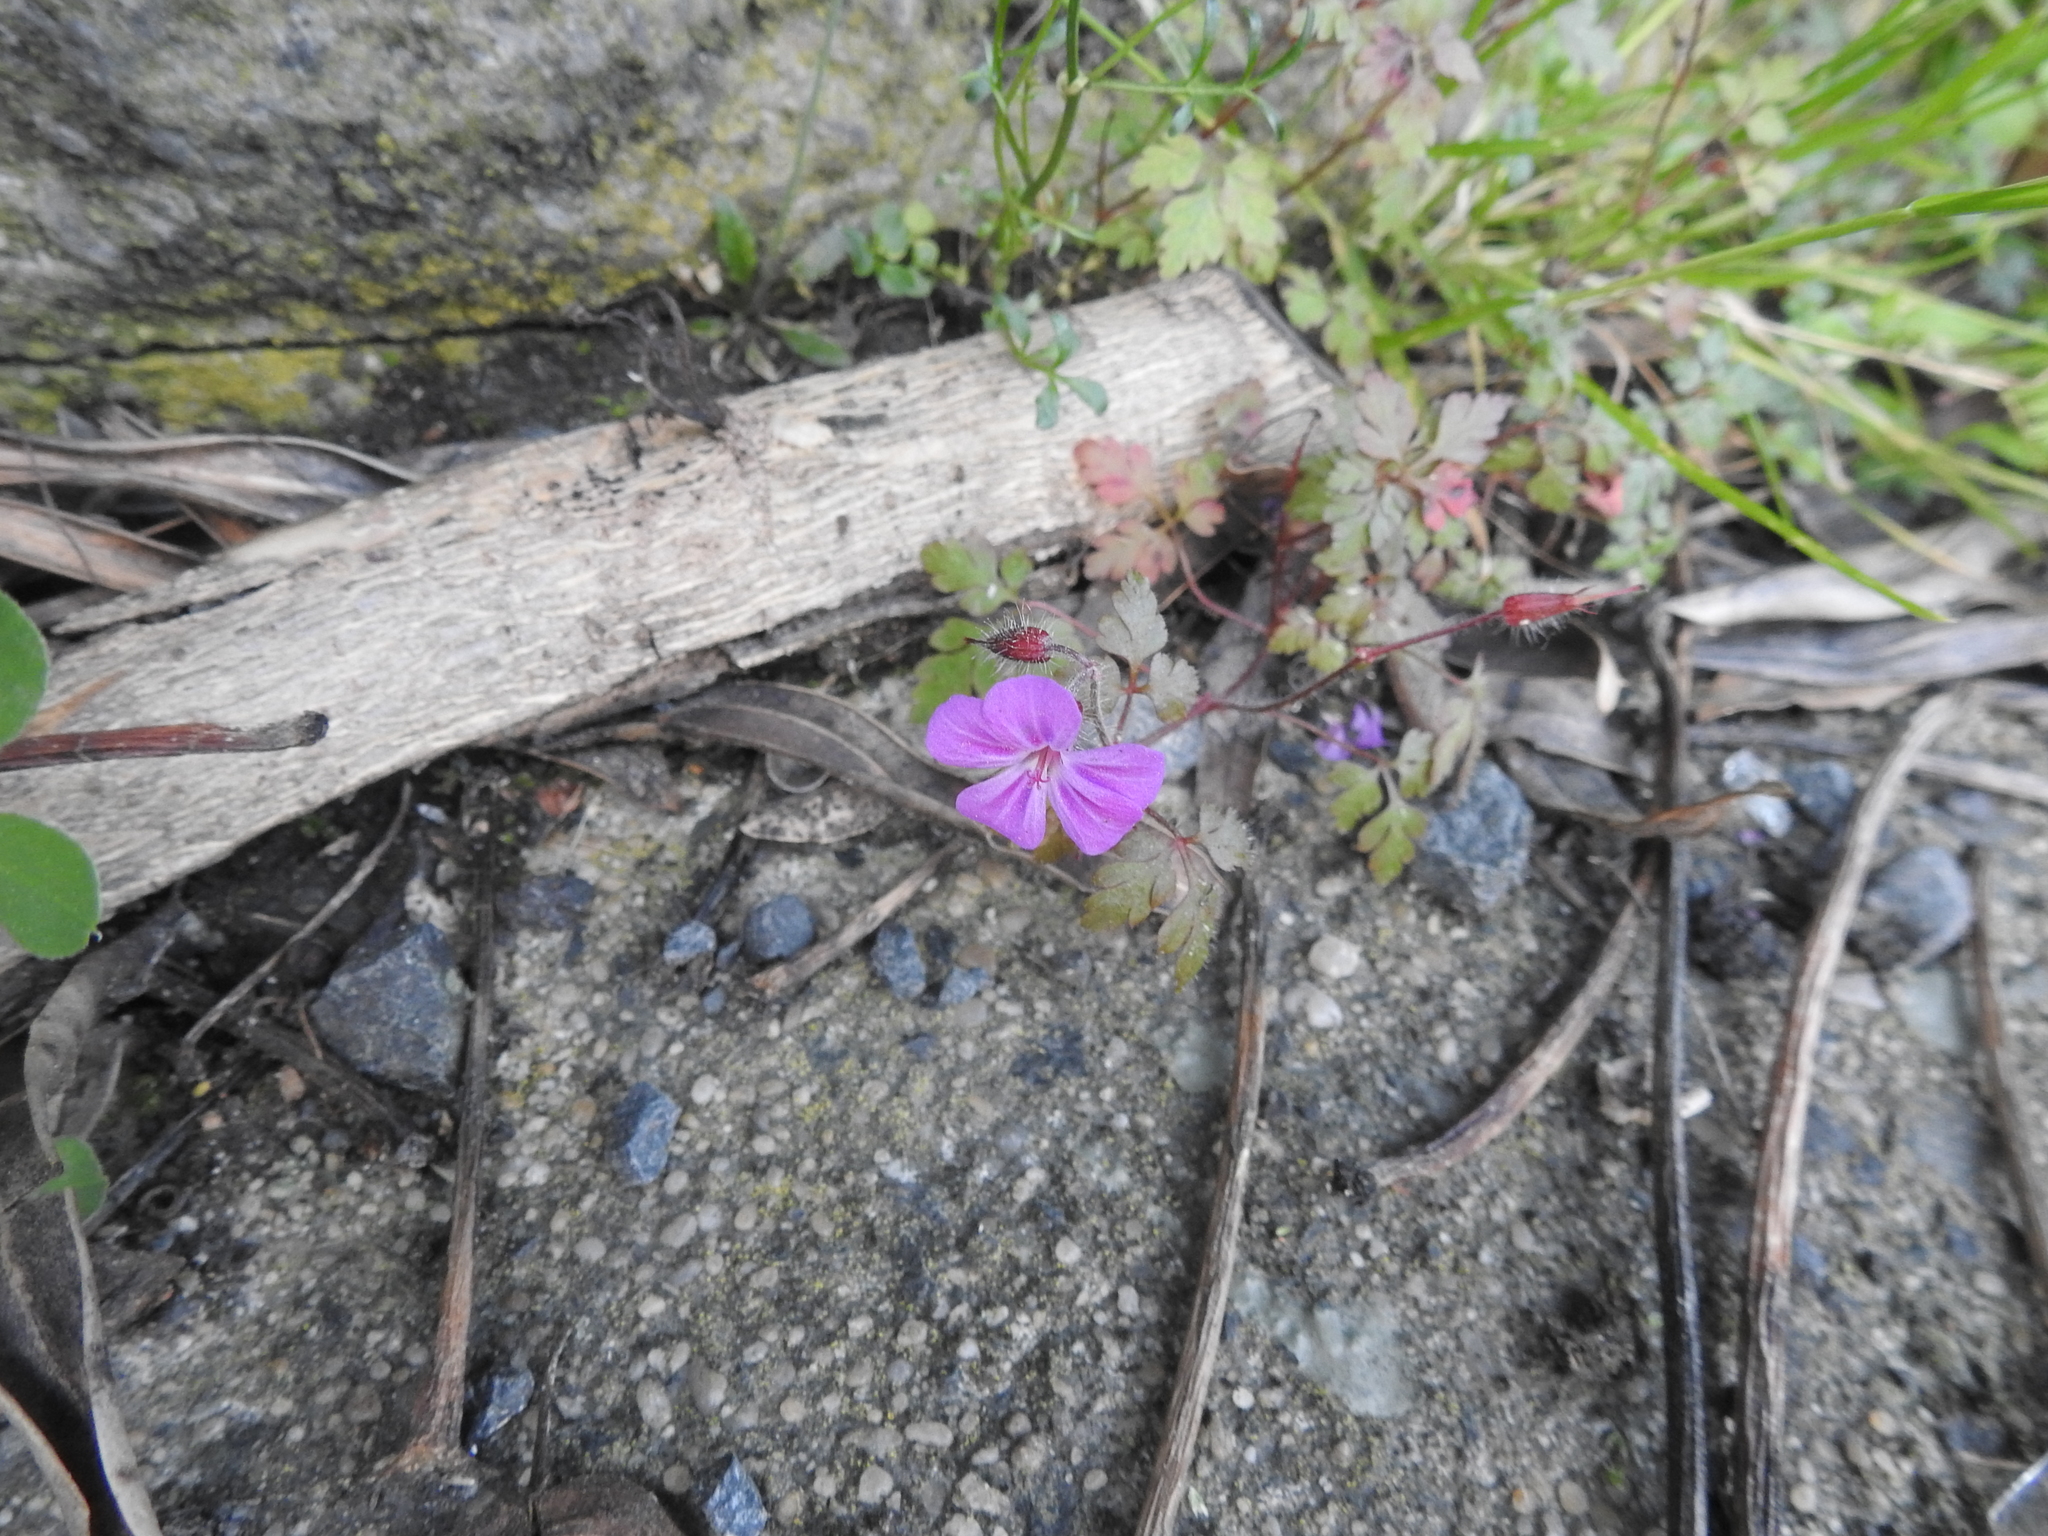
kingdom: Plantae
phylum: Tracheophyta
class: Magnoliopsida
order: Geraniales
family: Geraniaceae
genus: Geranium
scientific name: Geranium robertianum
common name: Herb-robert
